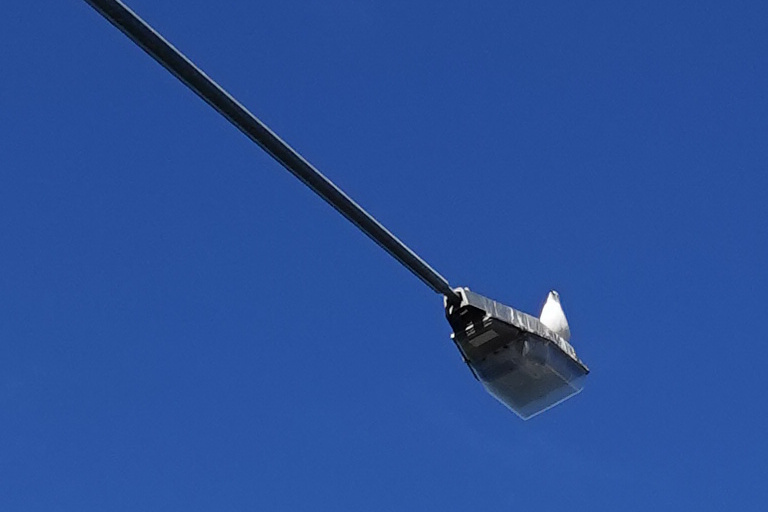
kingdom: Animalia
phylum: Chordata
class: Aves
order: Charadriiformes
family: Laridae
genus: Chroicocephalus
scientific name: Chroicocephalus novaehollandiae
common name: Silver gull
